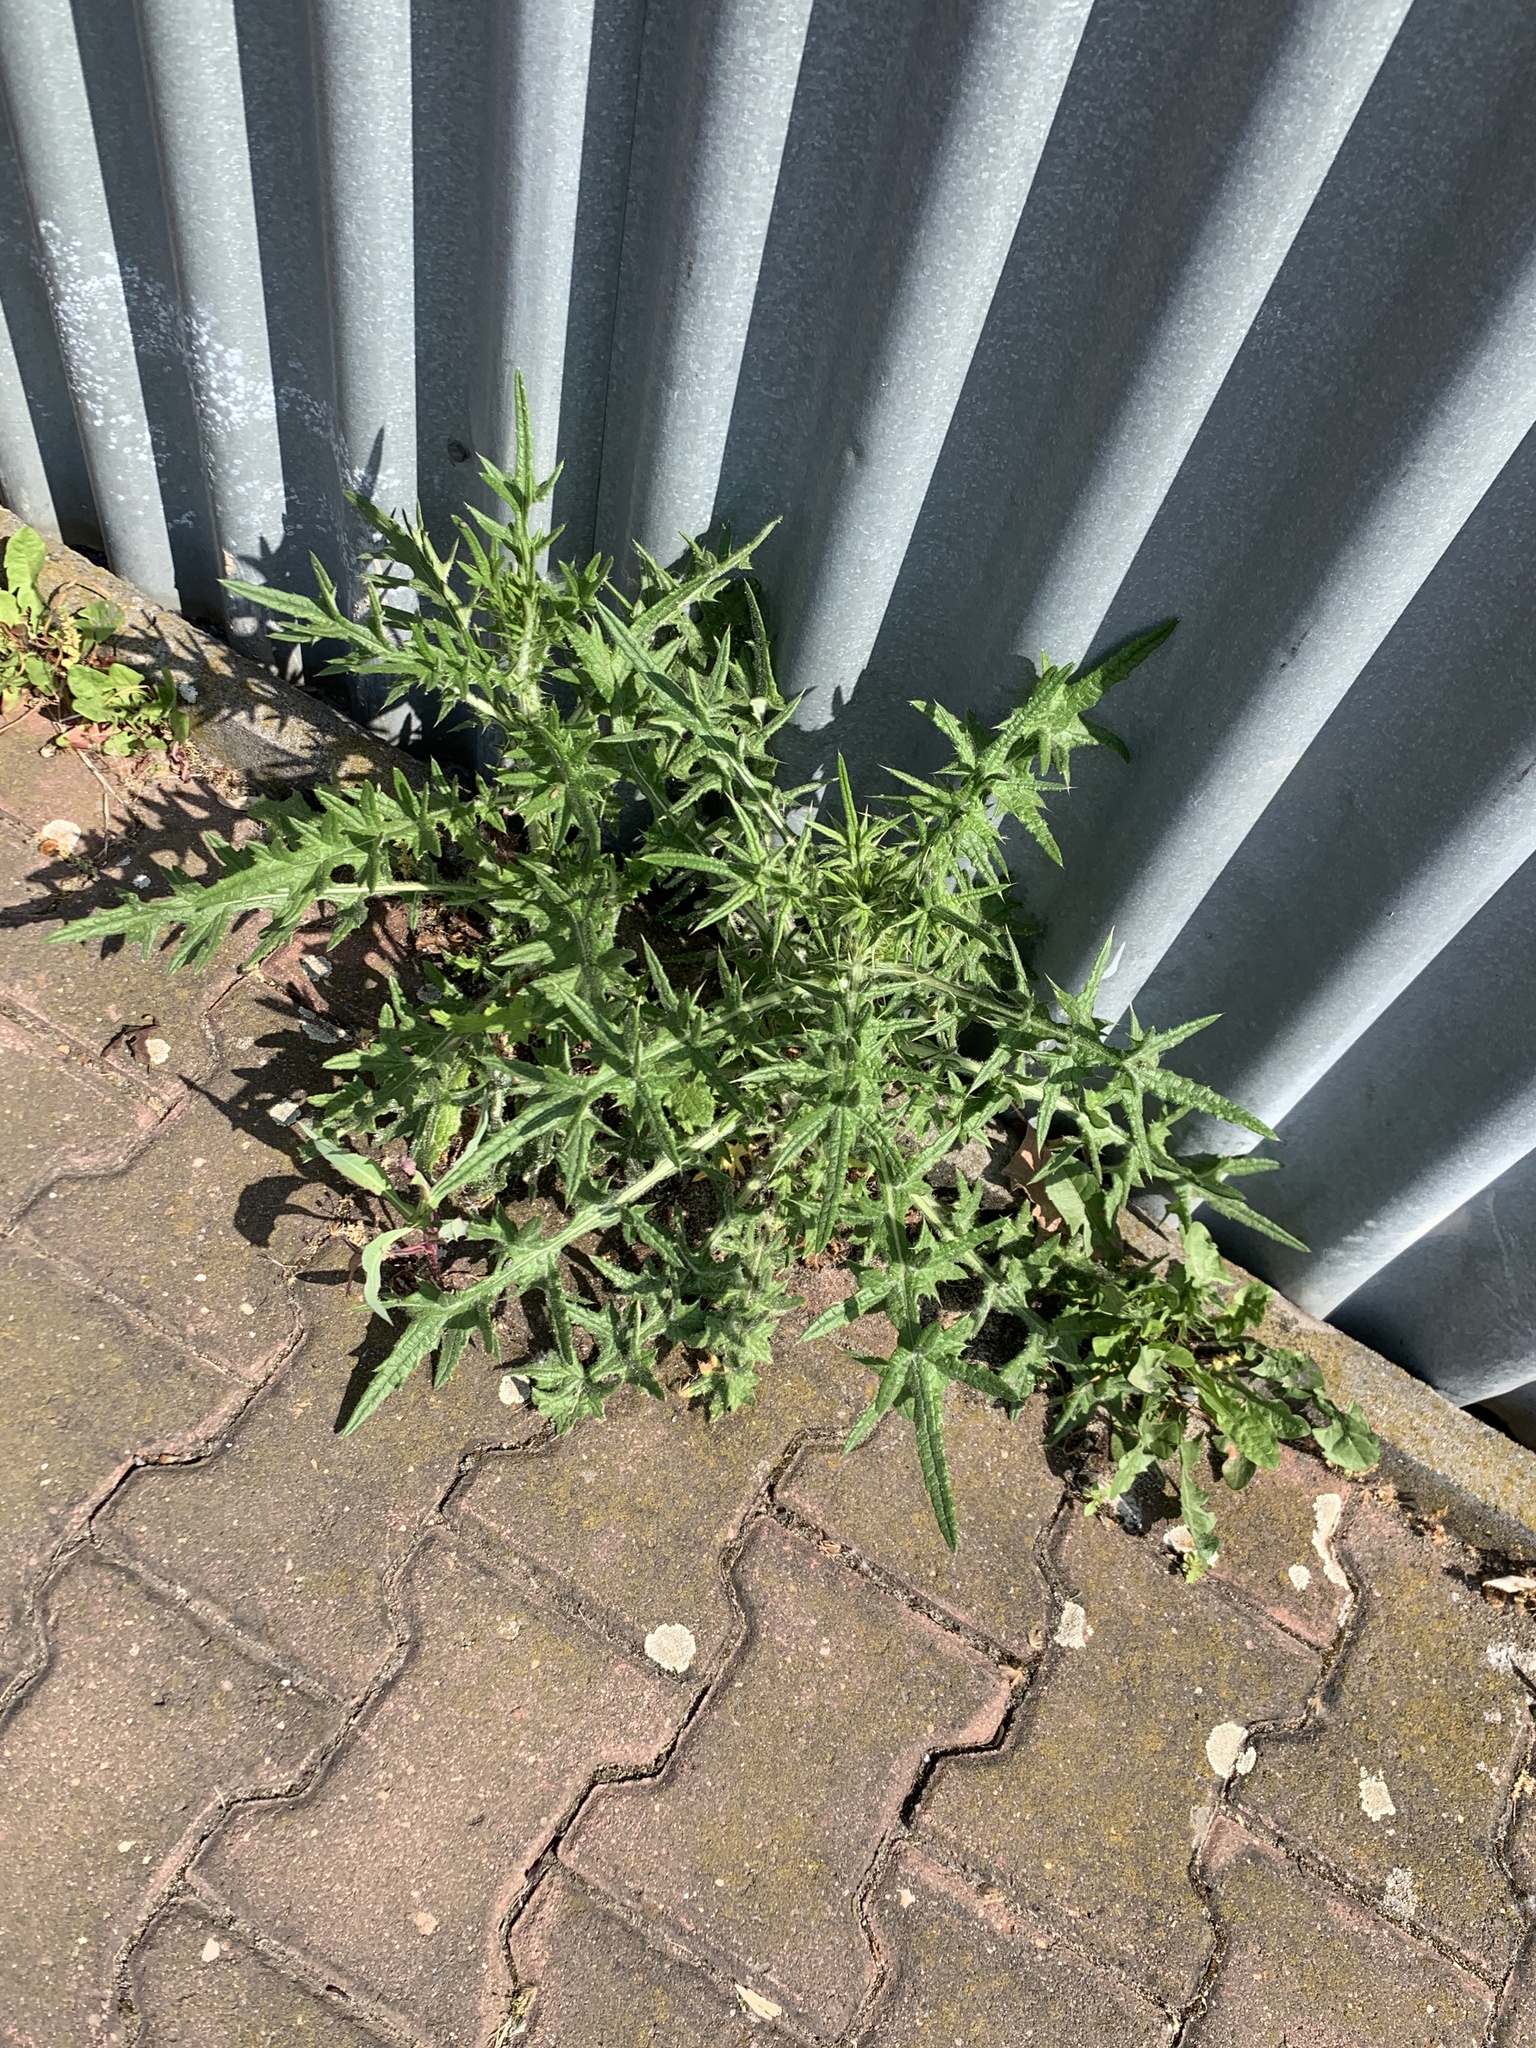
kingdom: Plantae
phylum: Tracheophyta
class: Magnoliopsida
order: Asterales
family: Asteraceae
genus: Cirsium
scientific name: Cirsium vulgare
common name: Bull thistle
